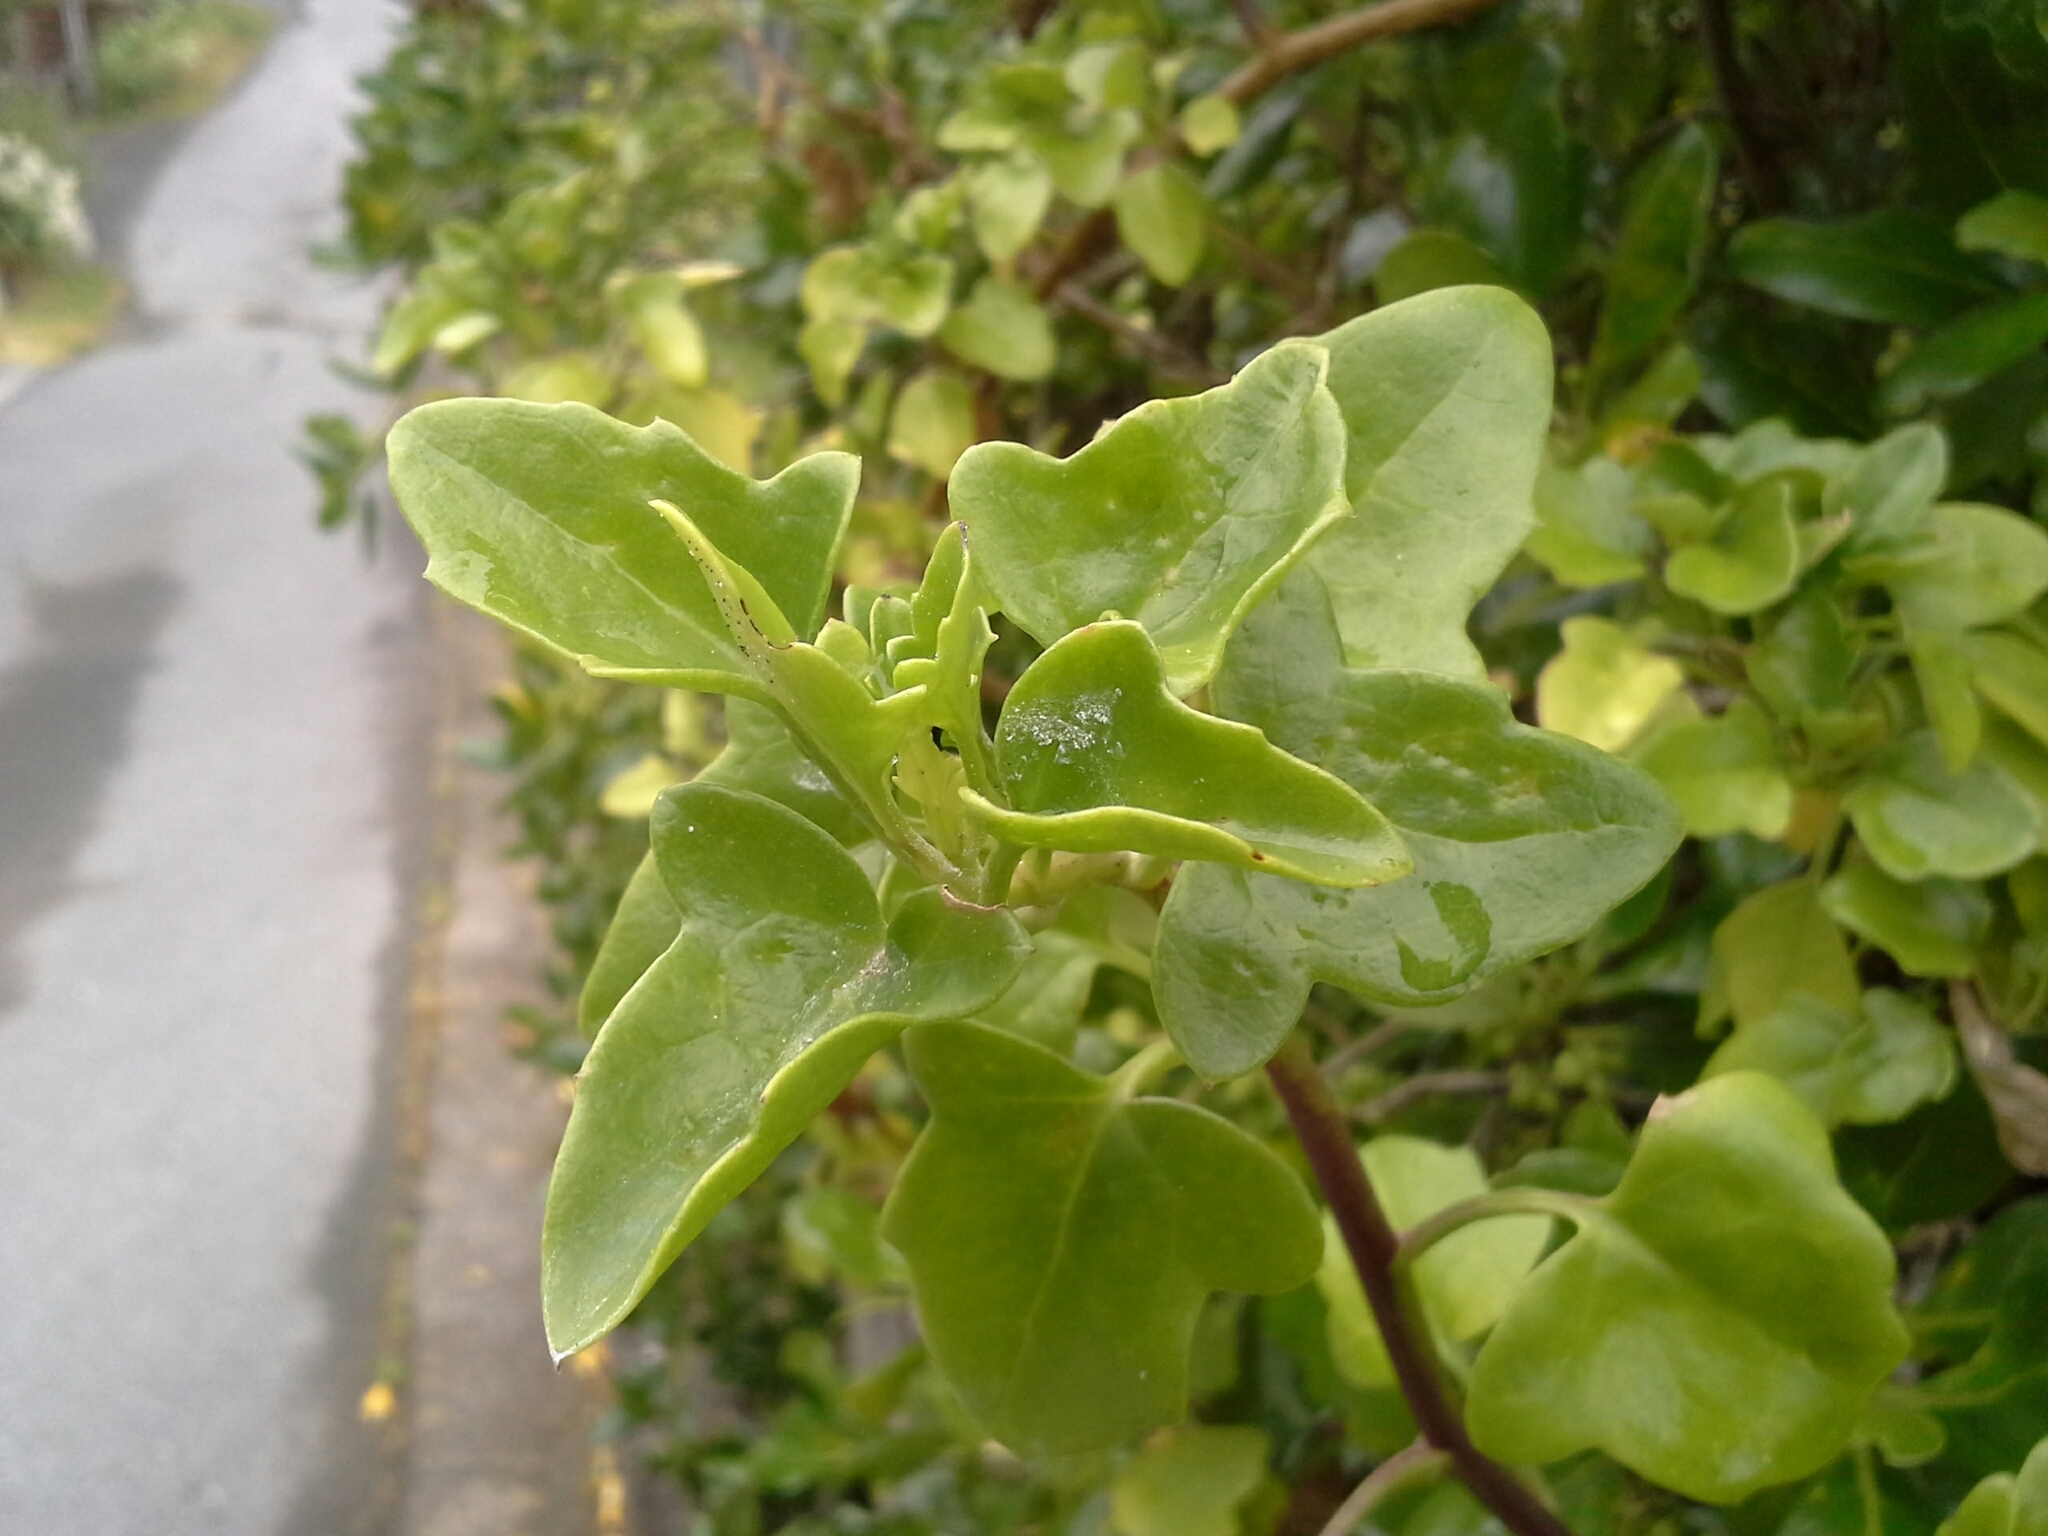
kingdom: Plantae
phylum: Tracheophyta
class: Magnoliopsida
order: Asterales
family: Asteraceae
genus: Senecio
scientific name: Senecio angulatus
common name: Climbing groundsel
